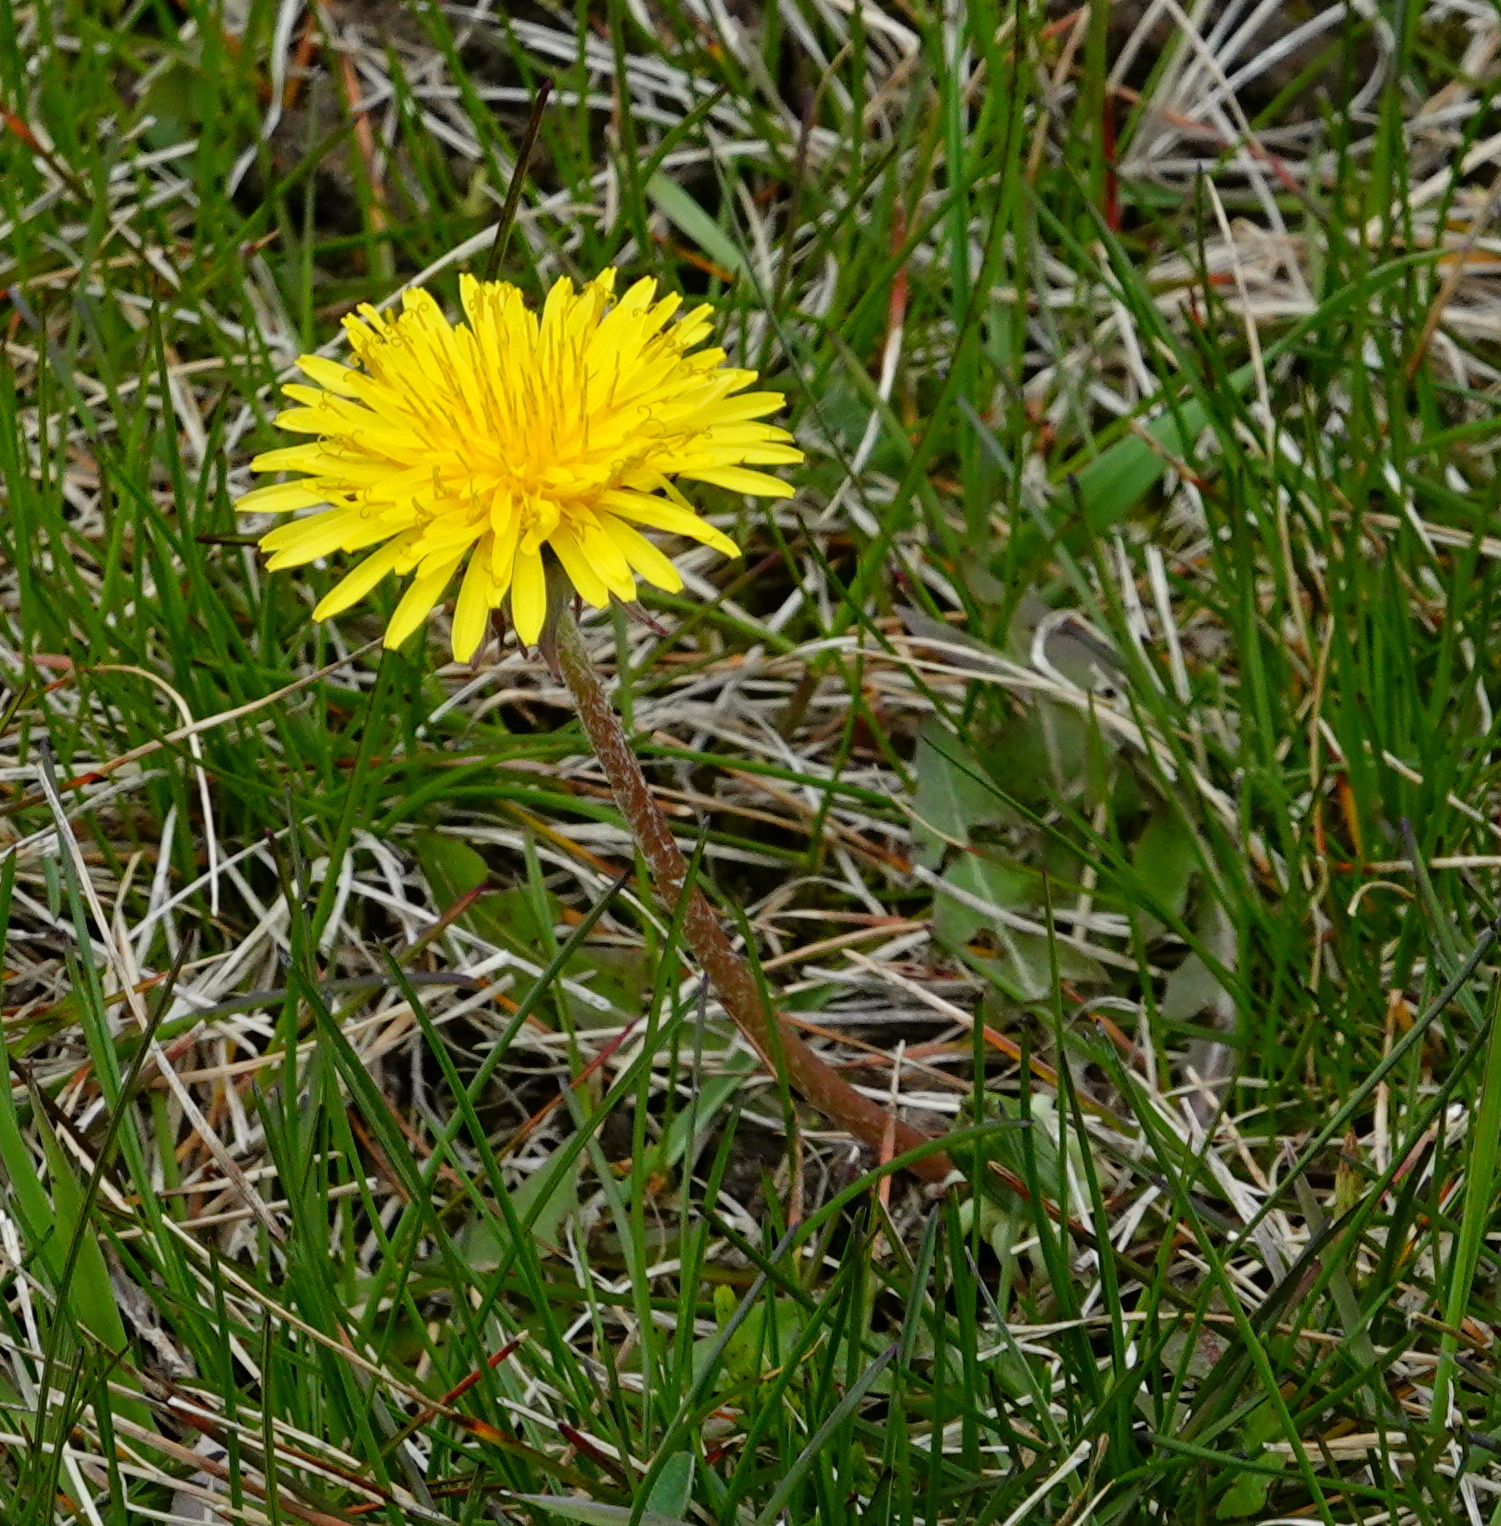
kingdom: Plantae
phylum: Tracheophyta
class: Magnoliopsida
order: Asterales
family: Asteraceae
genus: Taraxacum
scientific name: Taraxacum officinale
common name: Common dandelion
